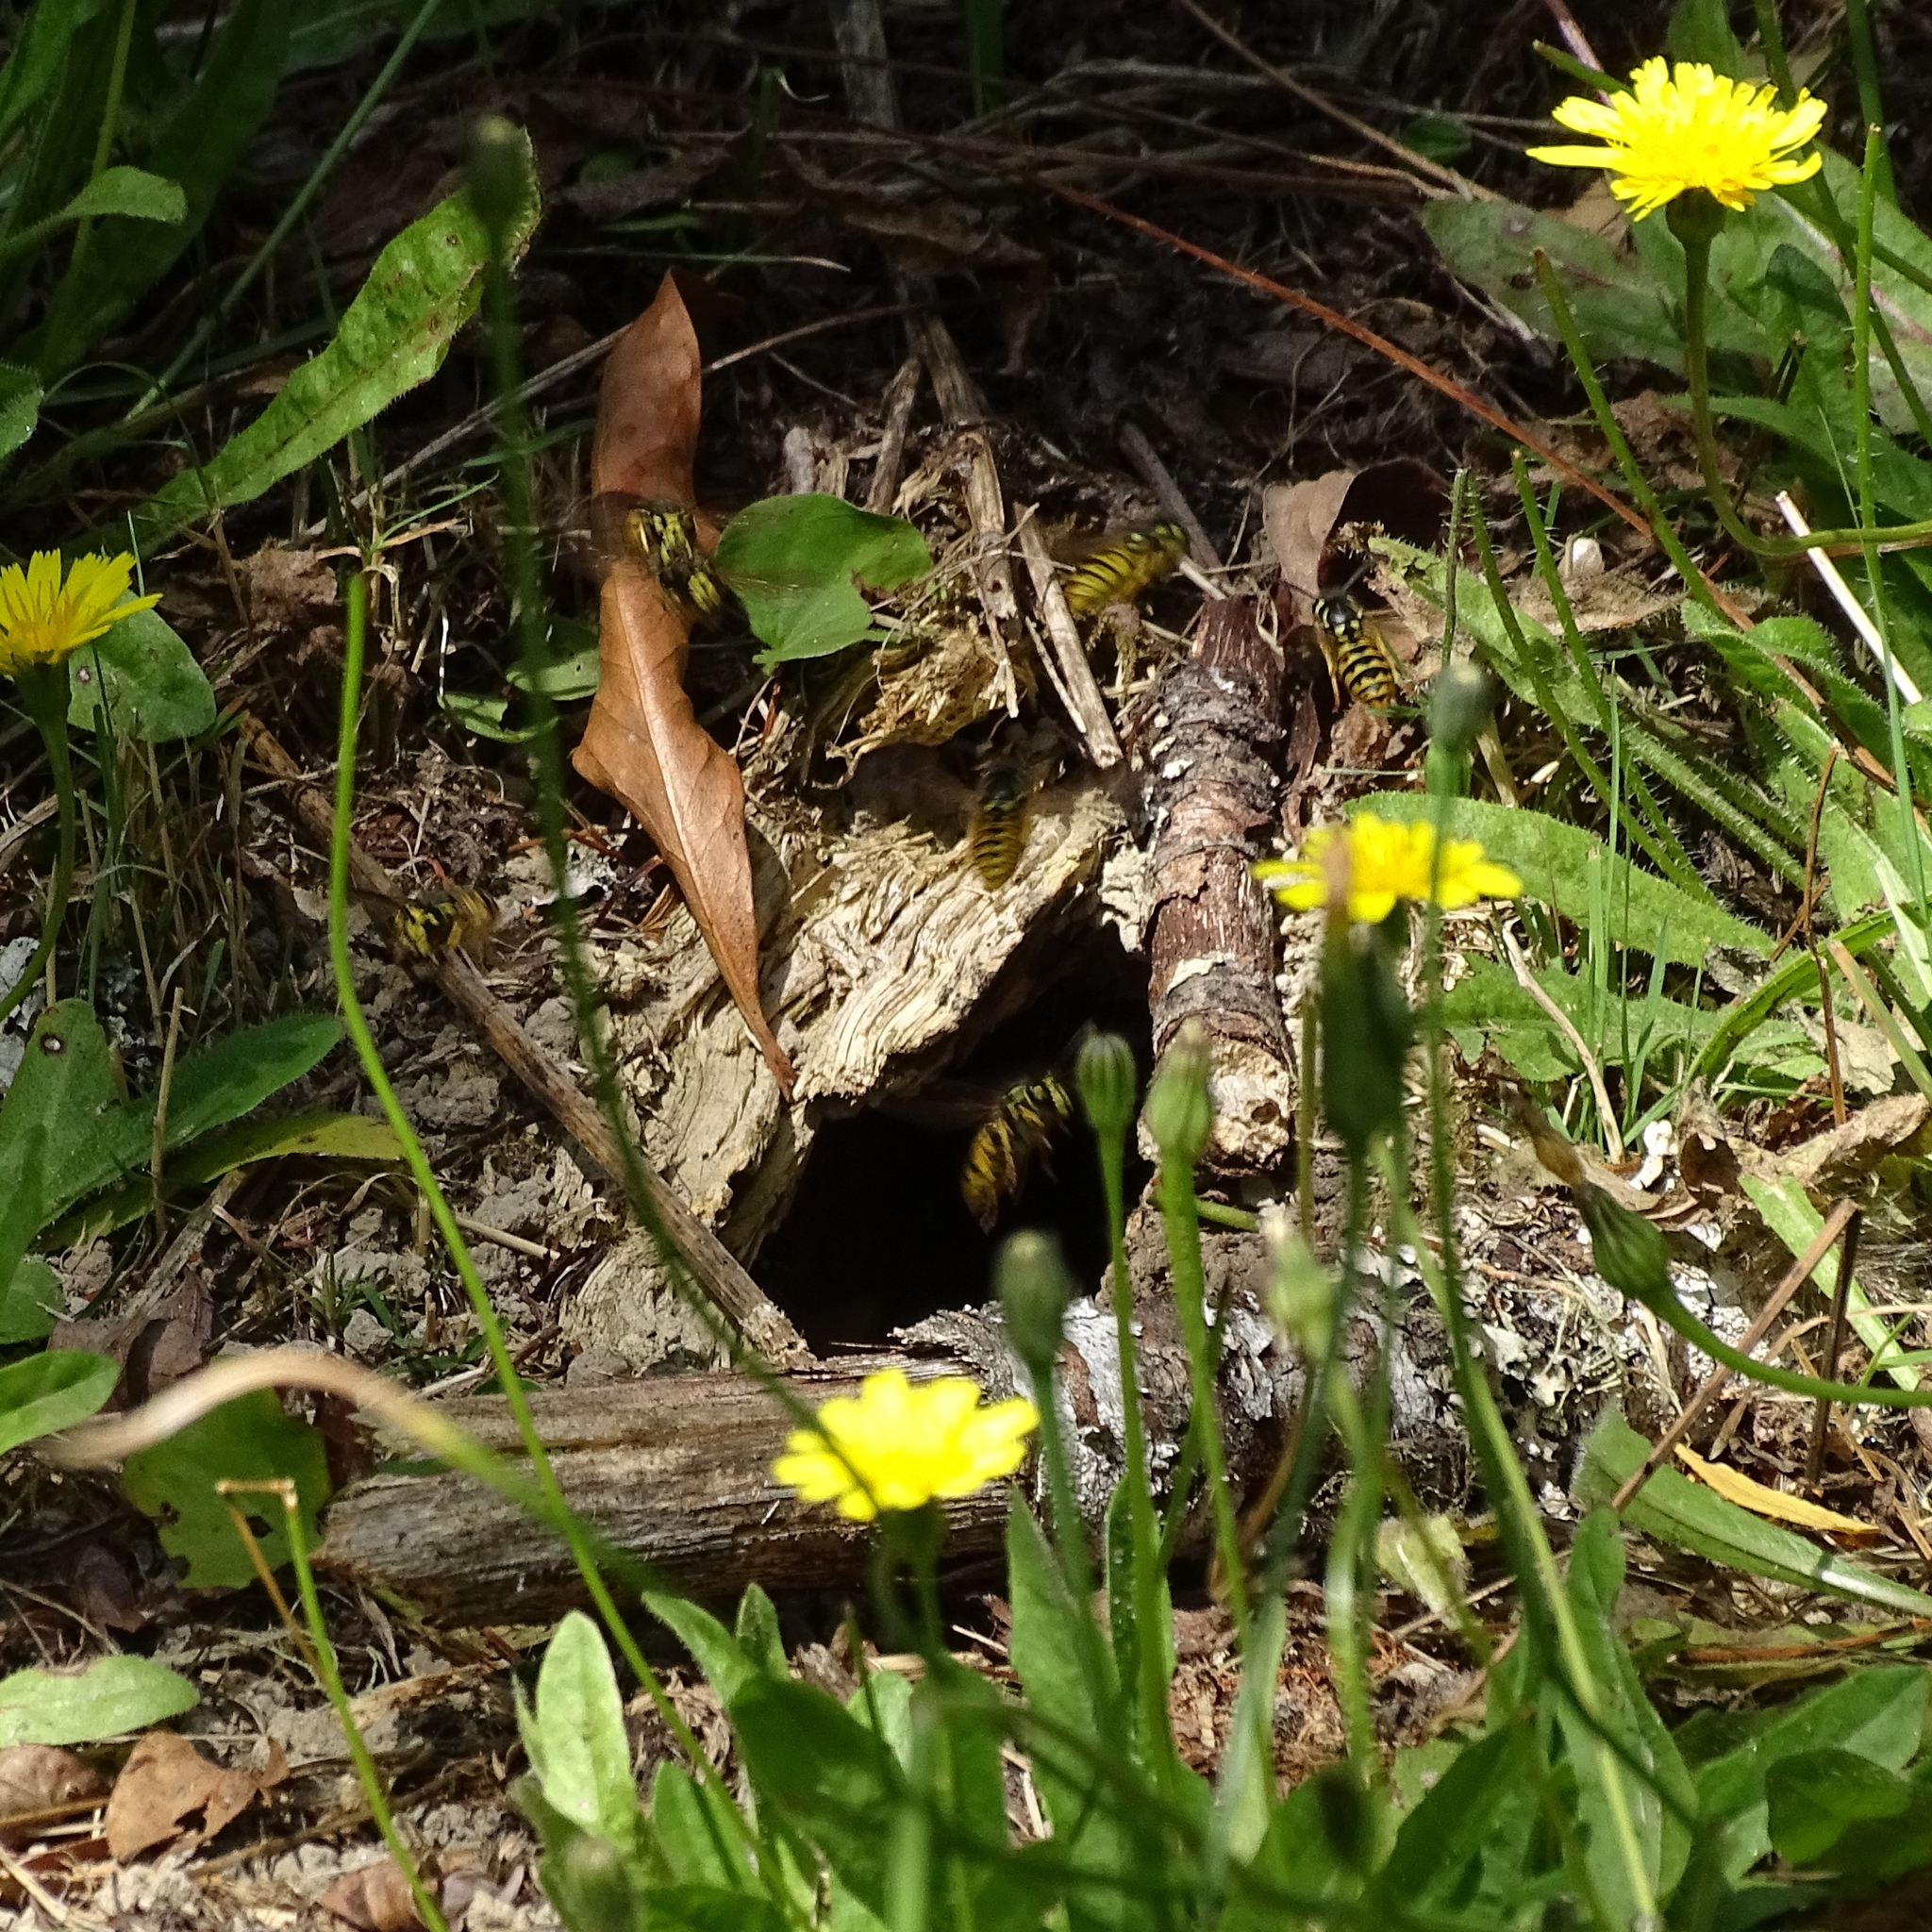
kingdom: Animalia
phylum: Arthropoda
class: Insecta
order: Hymenoptera
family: Vespidae
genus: Vespula
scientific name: Vespula germanica
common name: German wasp
